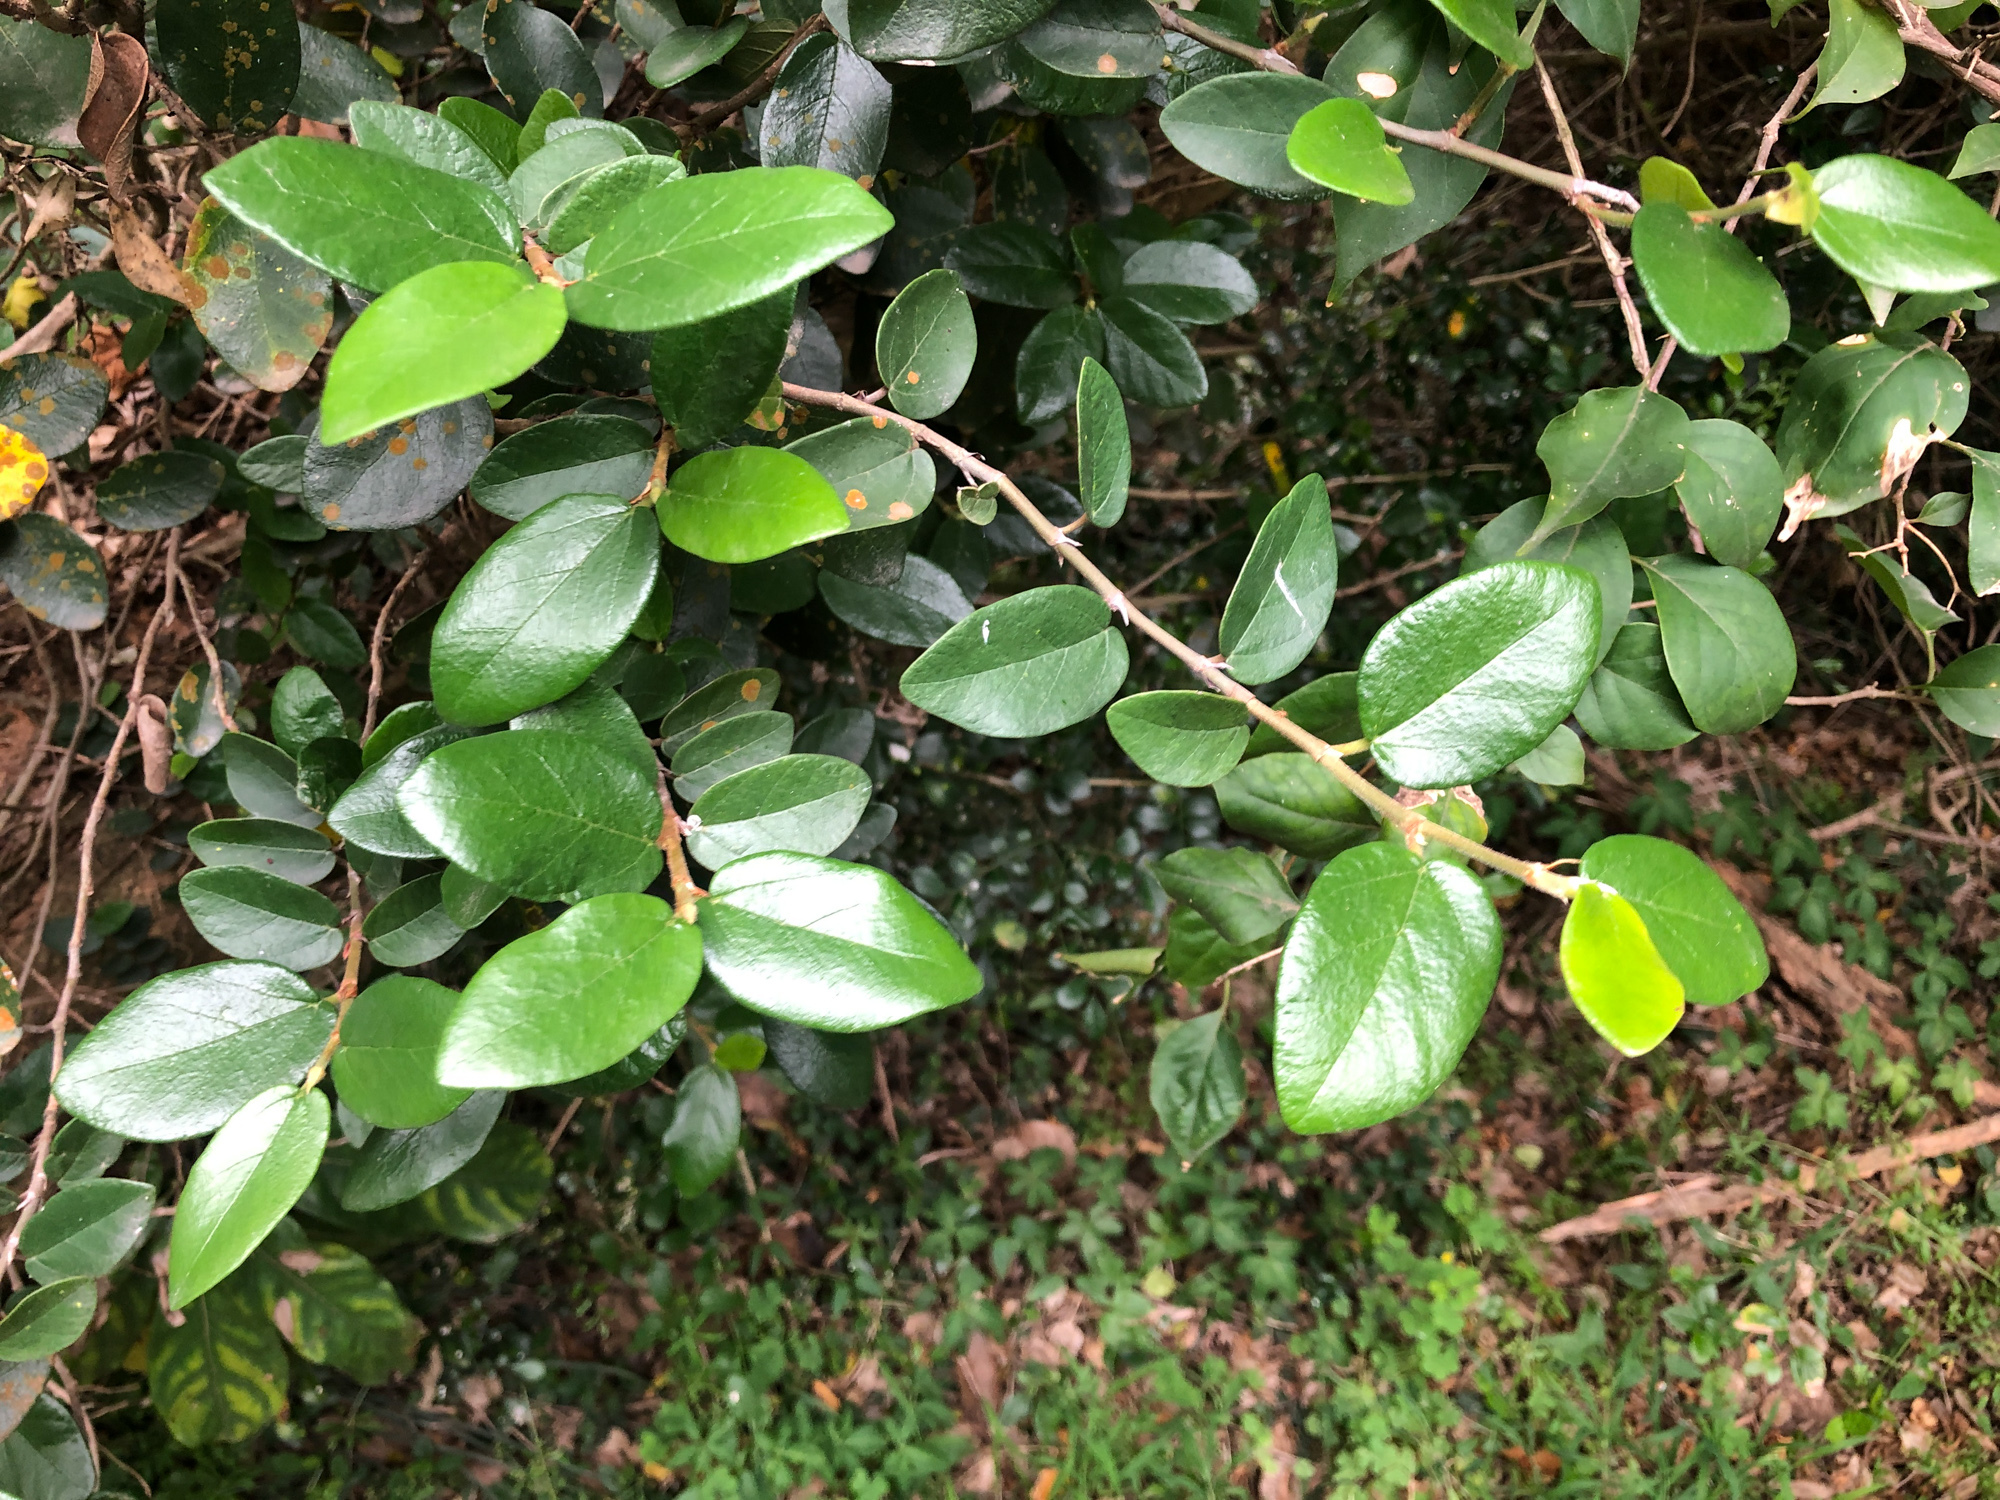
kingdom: Plantae
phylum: Tracheophyta
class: Magnoliopsida
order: Rosales
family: Moraceae
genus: Ficus
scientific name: Ficus pumila
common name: Climbingfig
